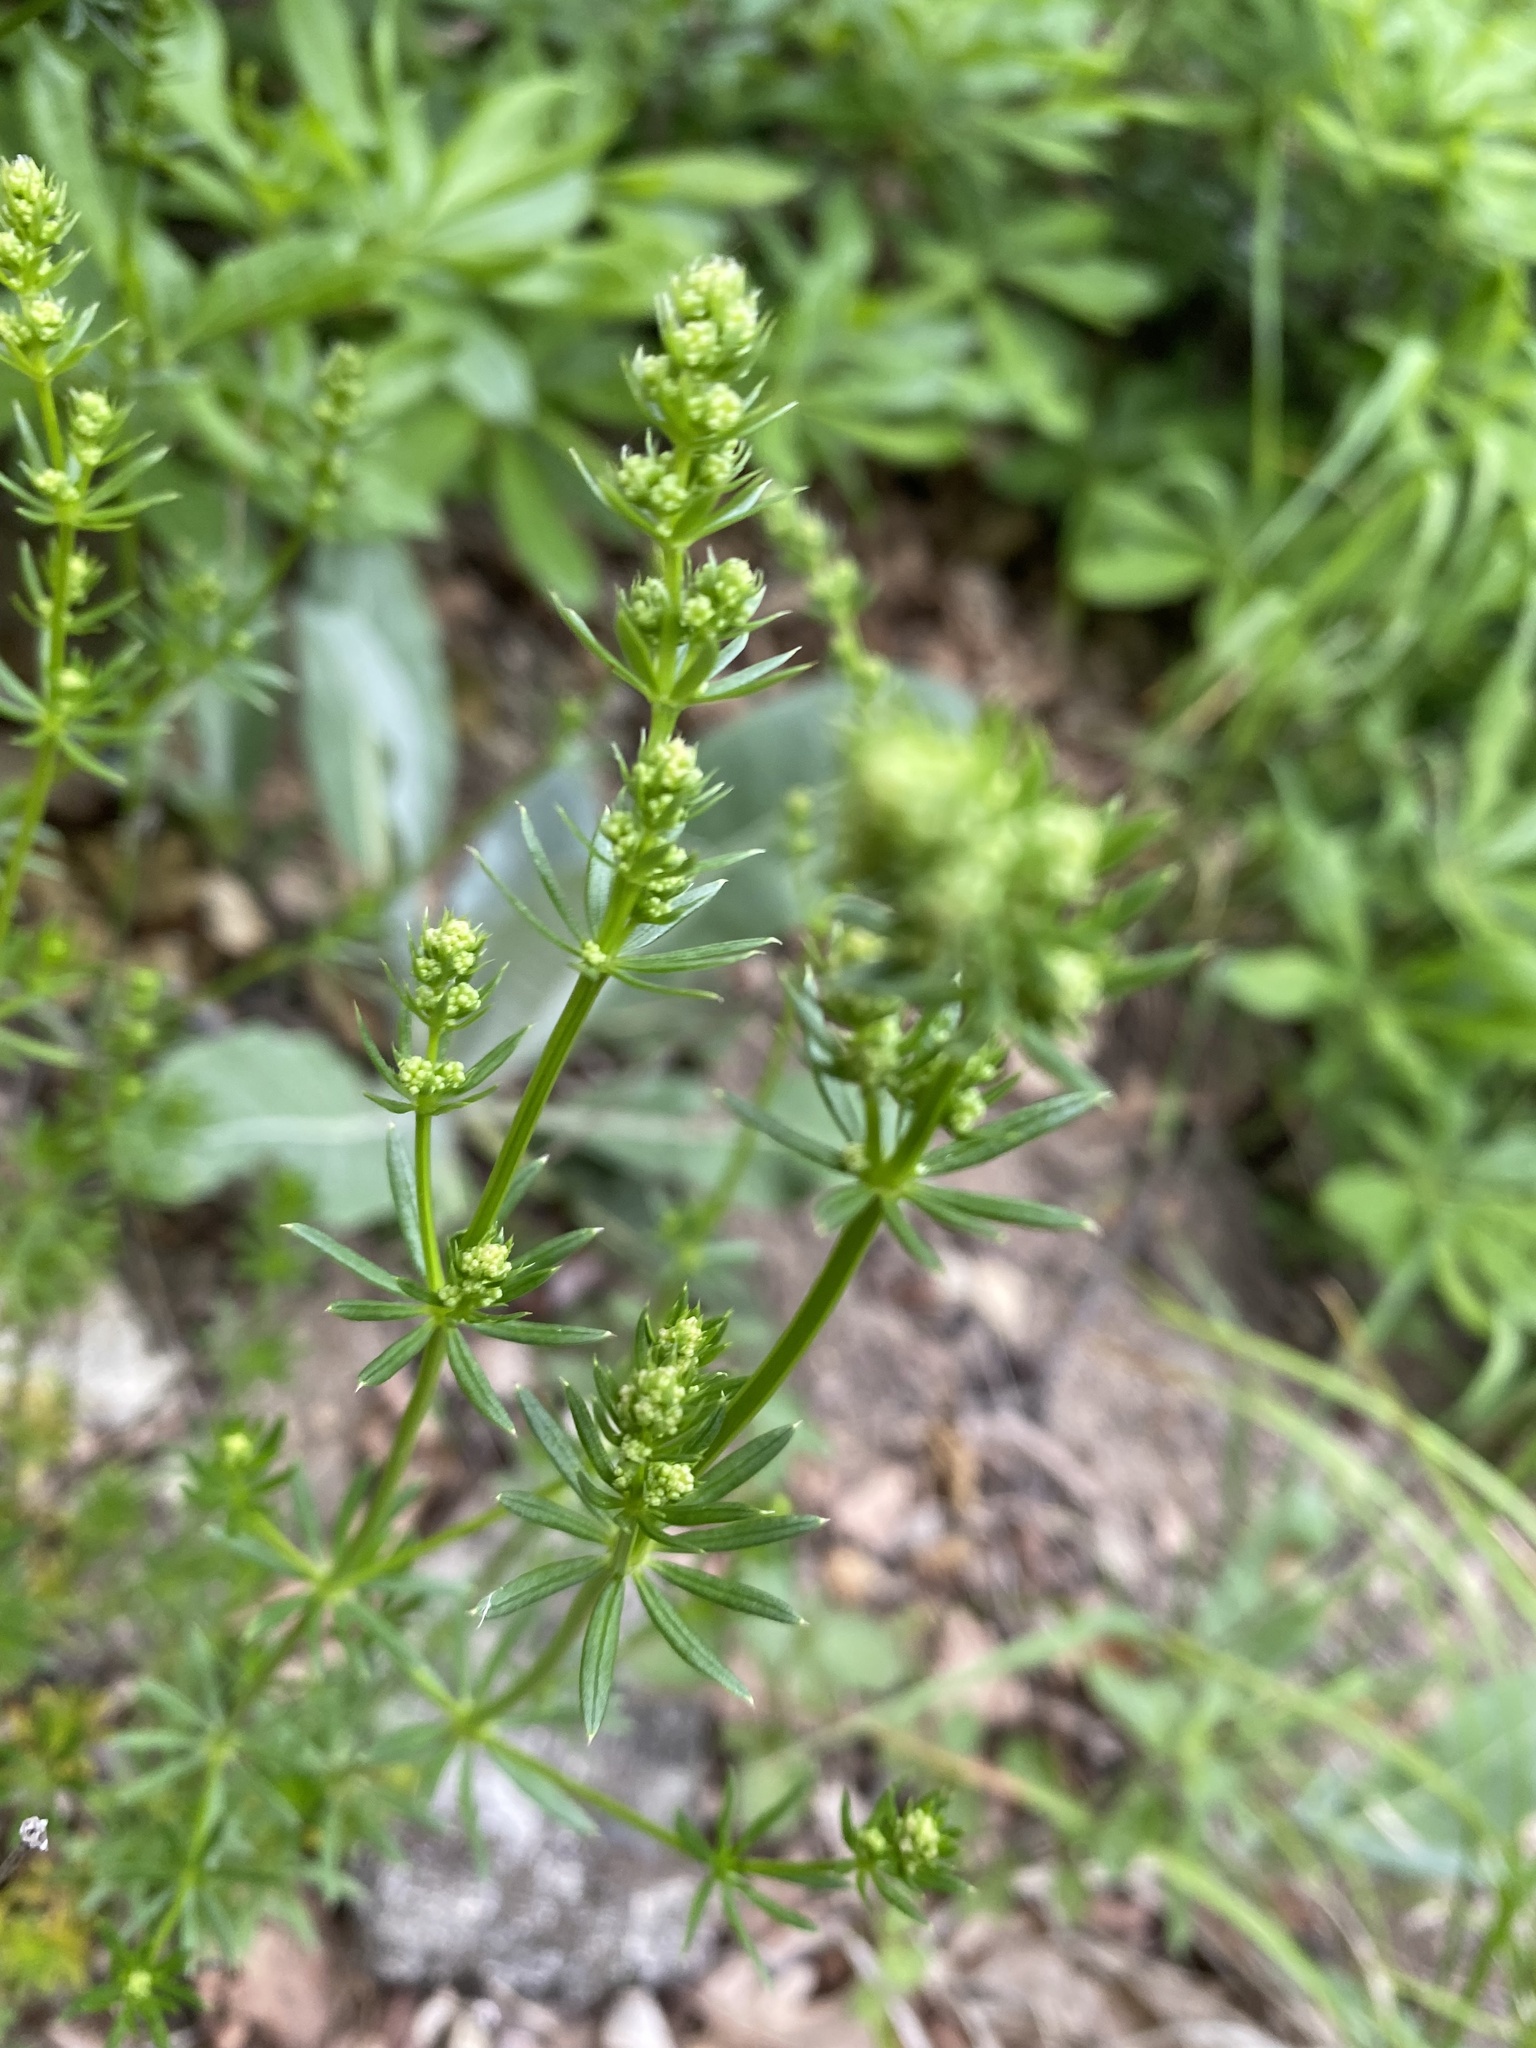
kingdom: Plantae
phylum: Tracheophyta
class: Magnoliopsida
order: Gentianales
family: Rubiaceae
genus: Galium
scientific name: Galium mollugo
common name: Hedge bedstraw
